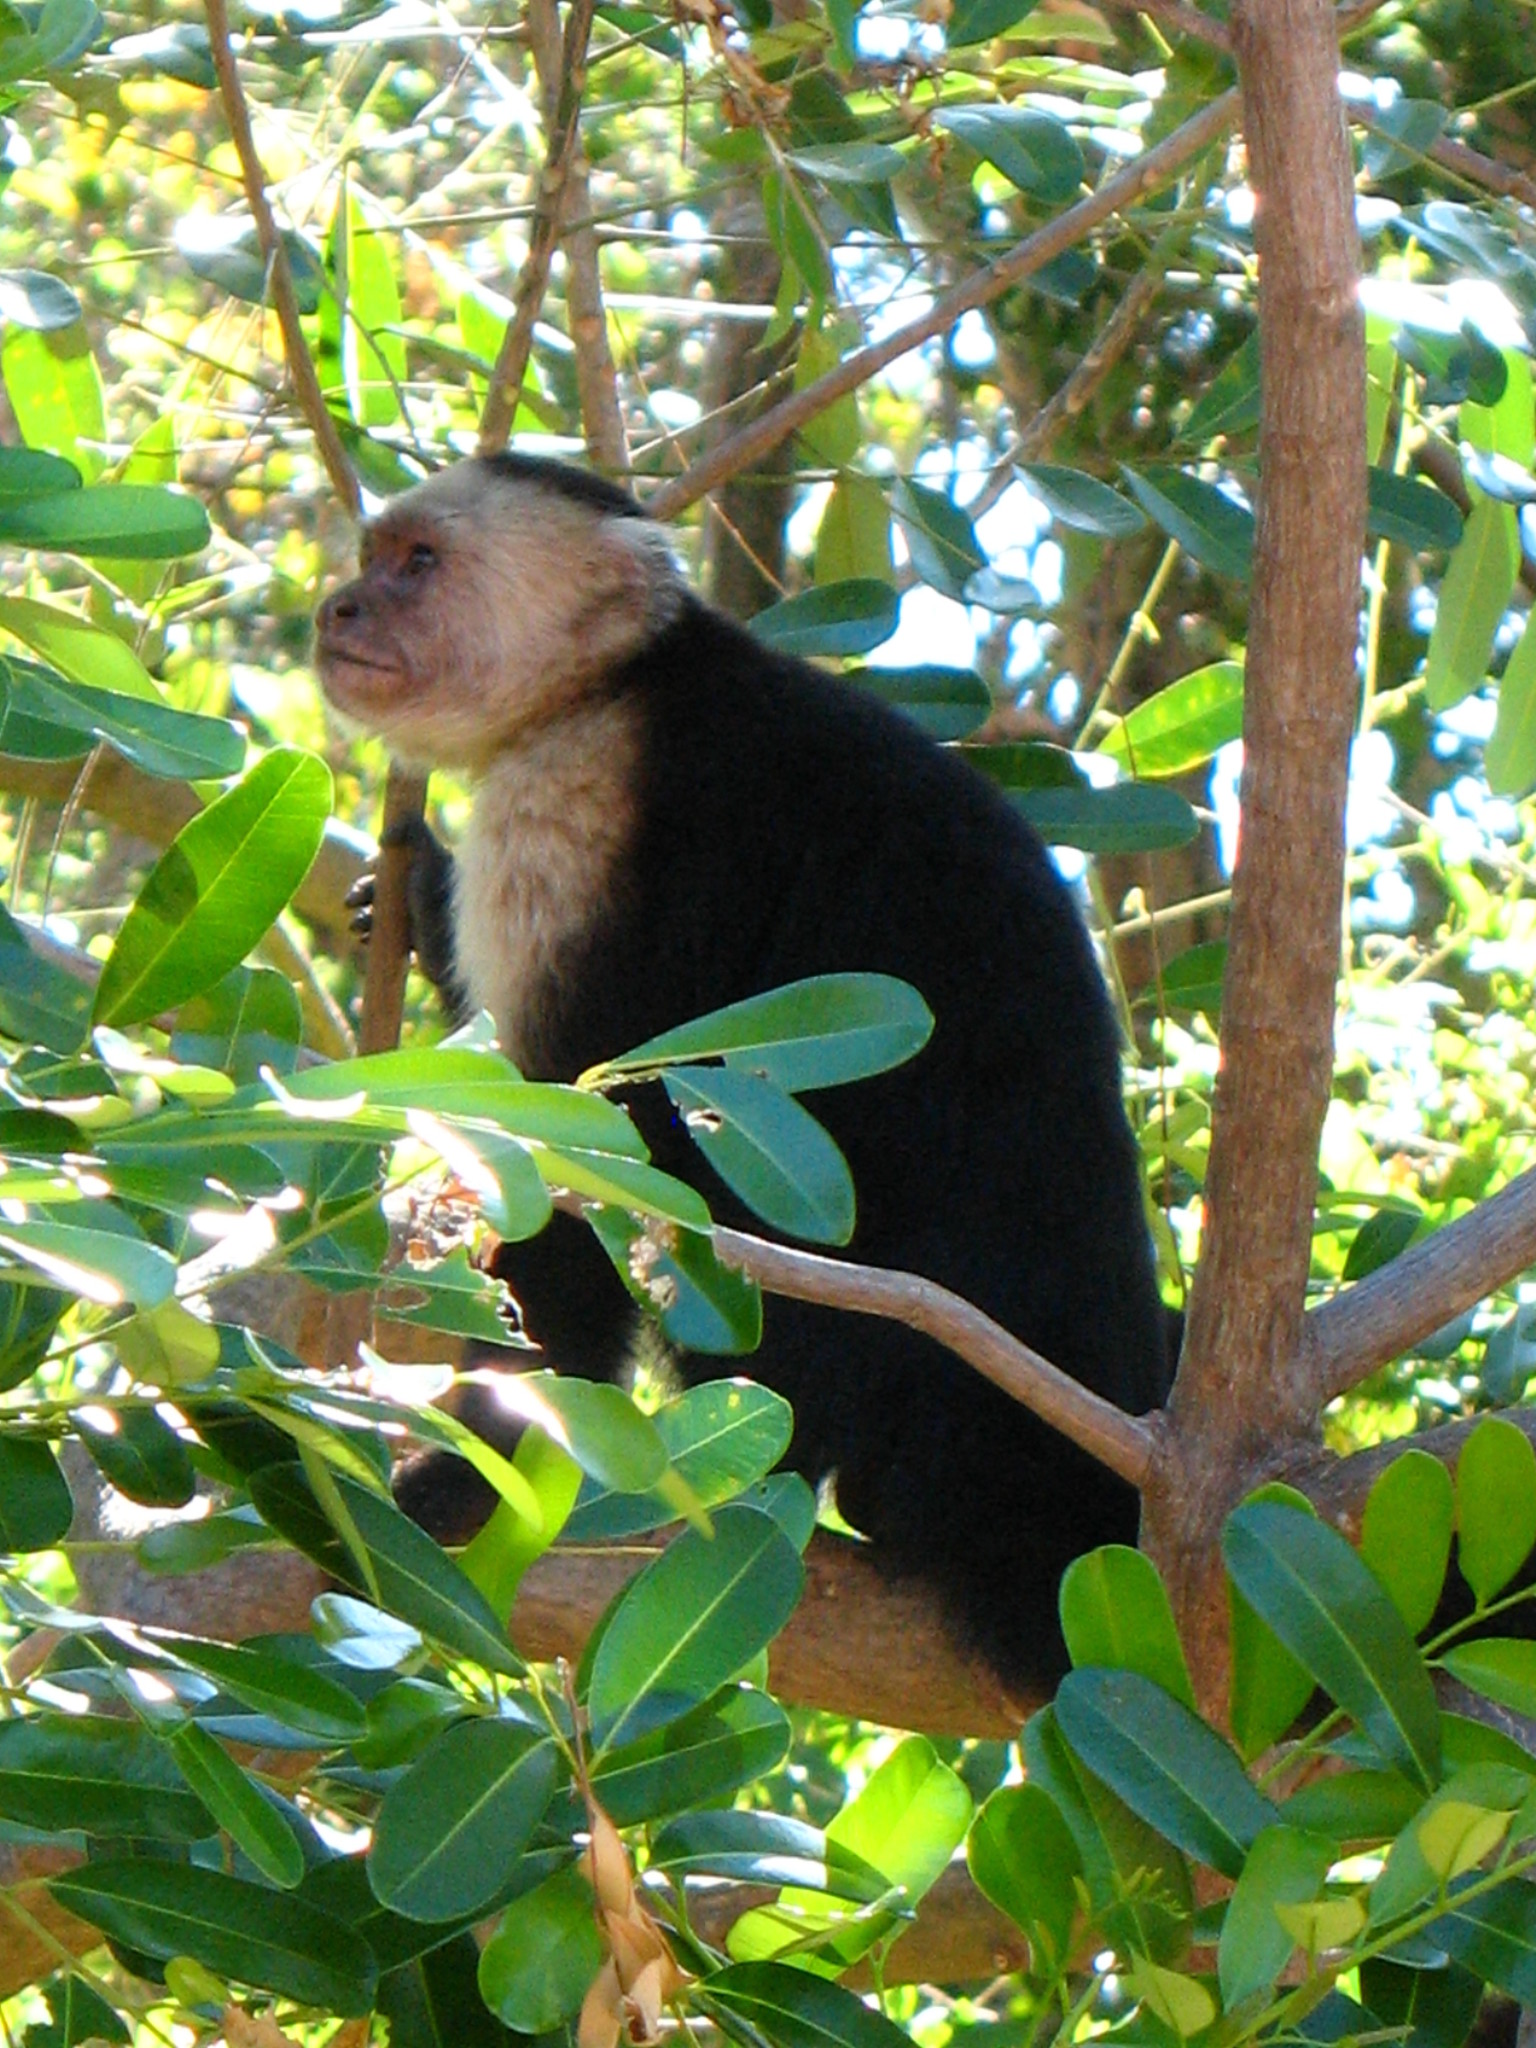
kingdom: Animalia
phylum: Chordata
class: Mammalia
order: Primates
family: Cebidae
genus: Cebus
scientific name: Cebus imitator
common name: Panamanian white-faced capuchin
